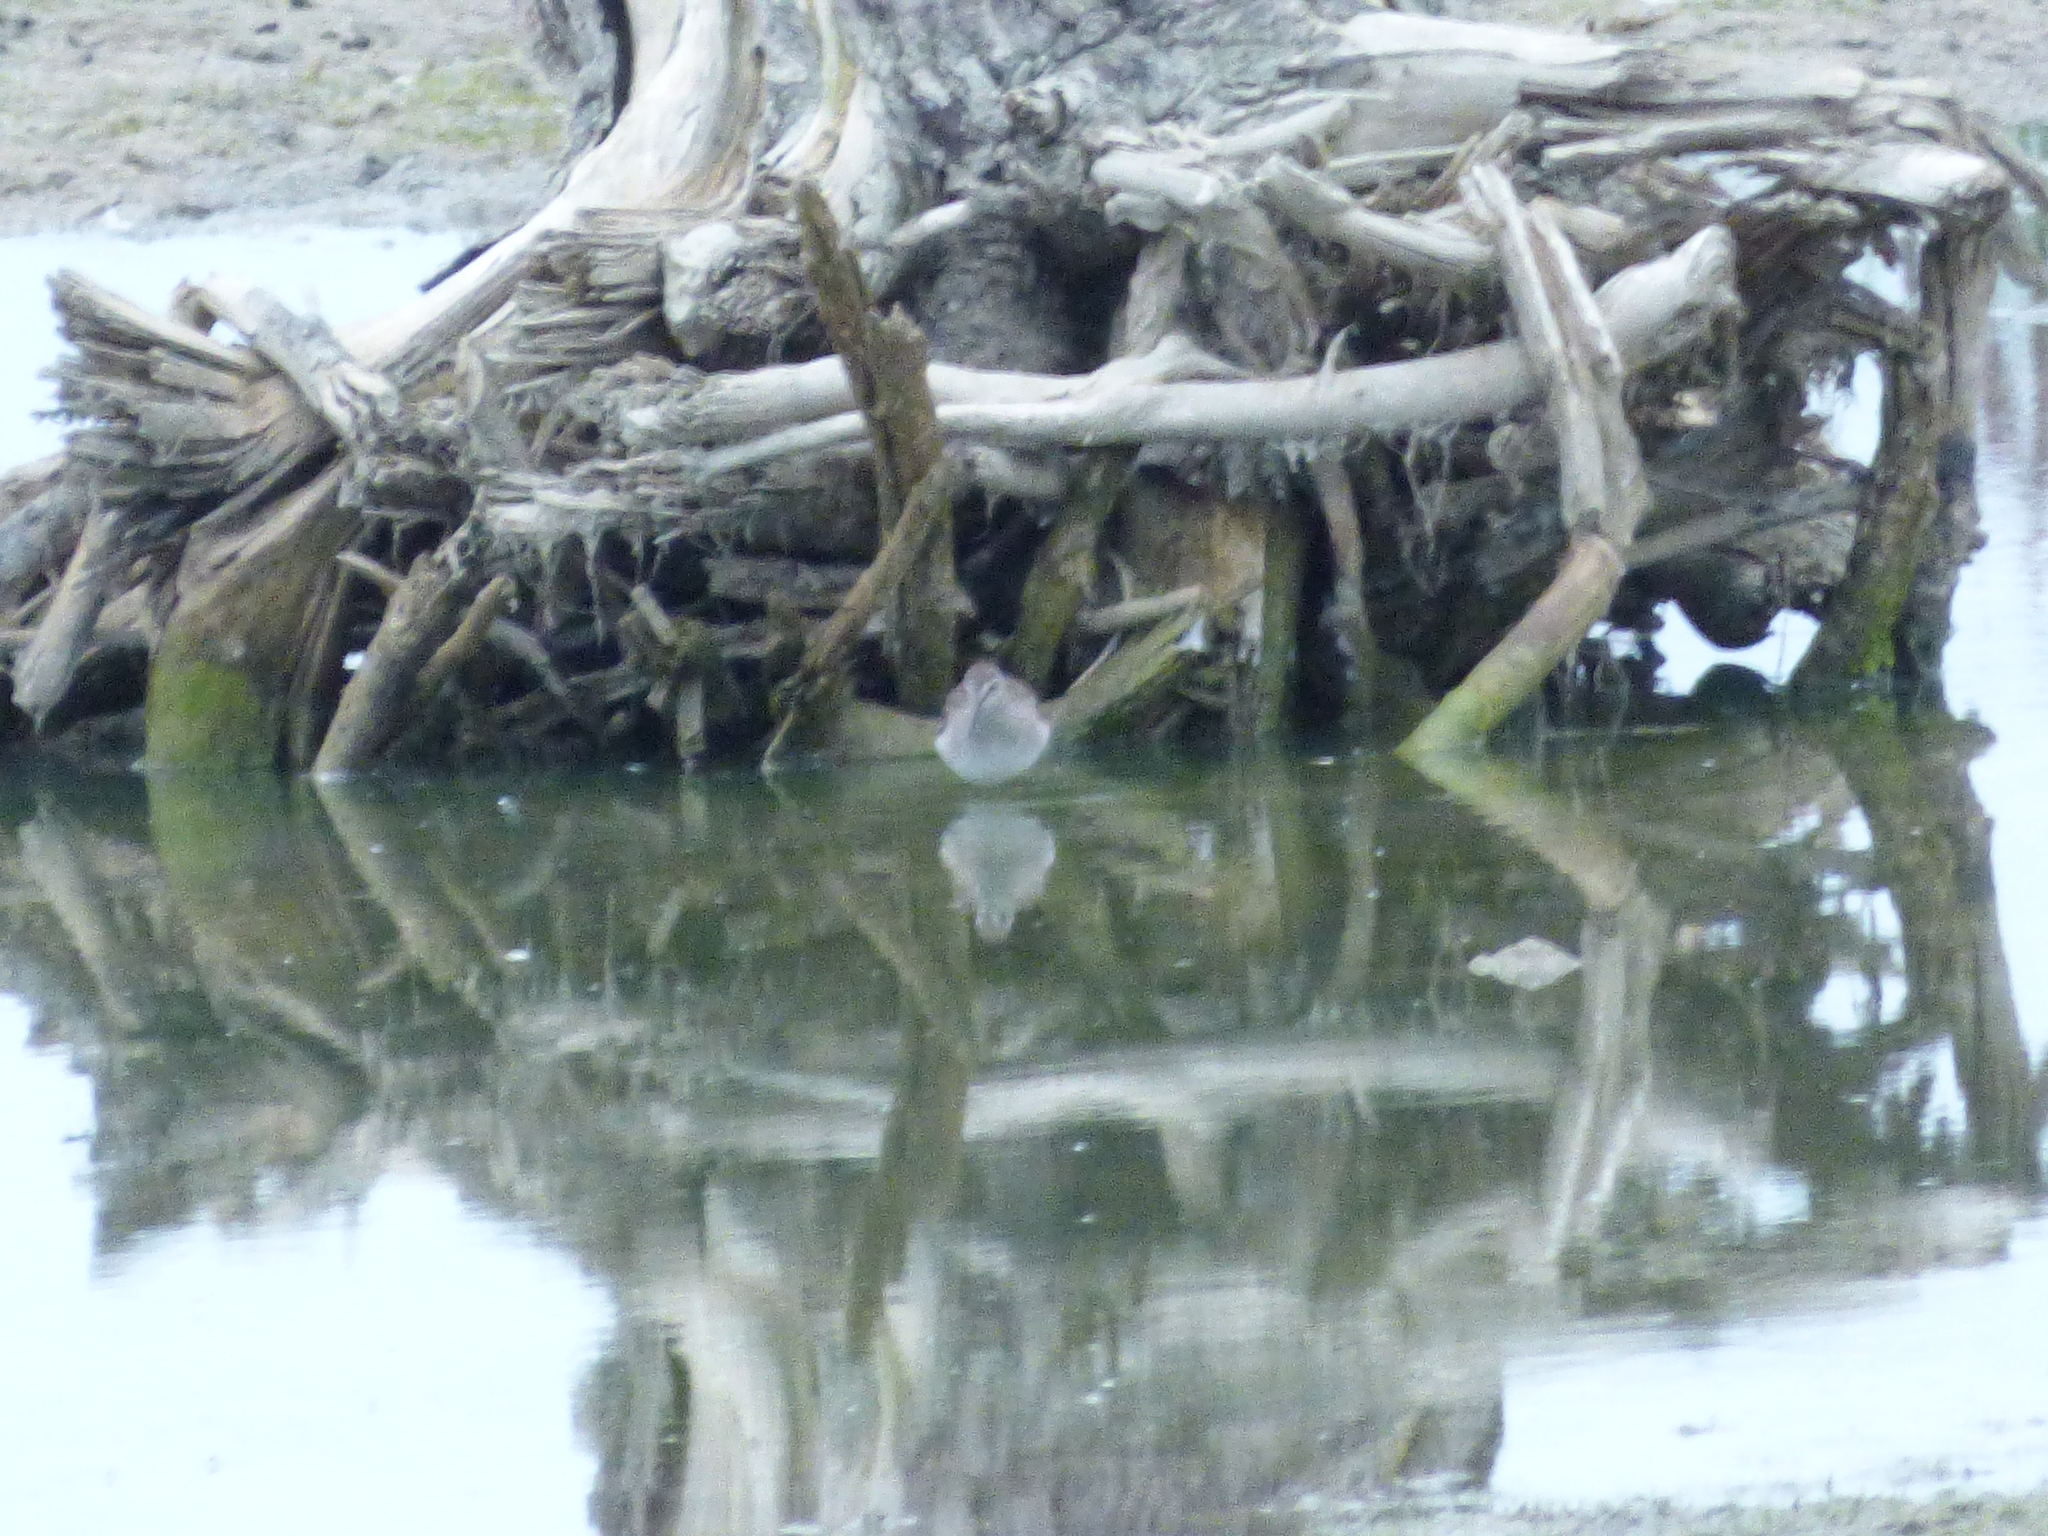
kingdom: Animalia
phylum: Chordata
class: Aves
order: Charadriiformes
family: Scolopacidae
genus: Tringa
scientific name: Tringa flavipes
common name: Lesser yellowlegs
